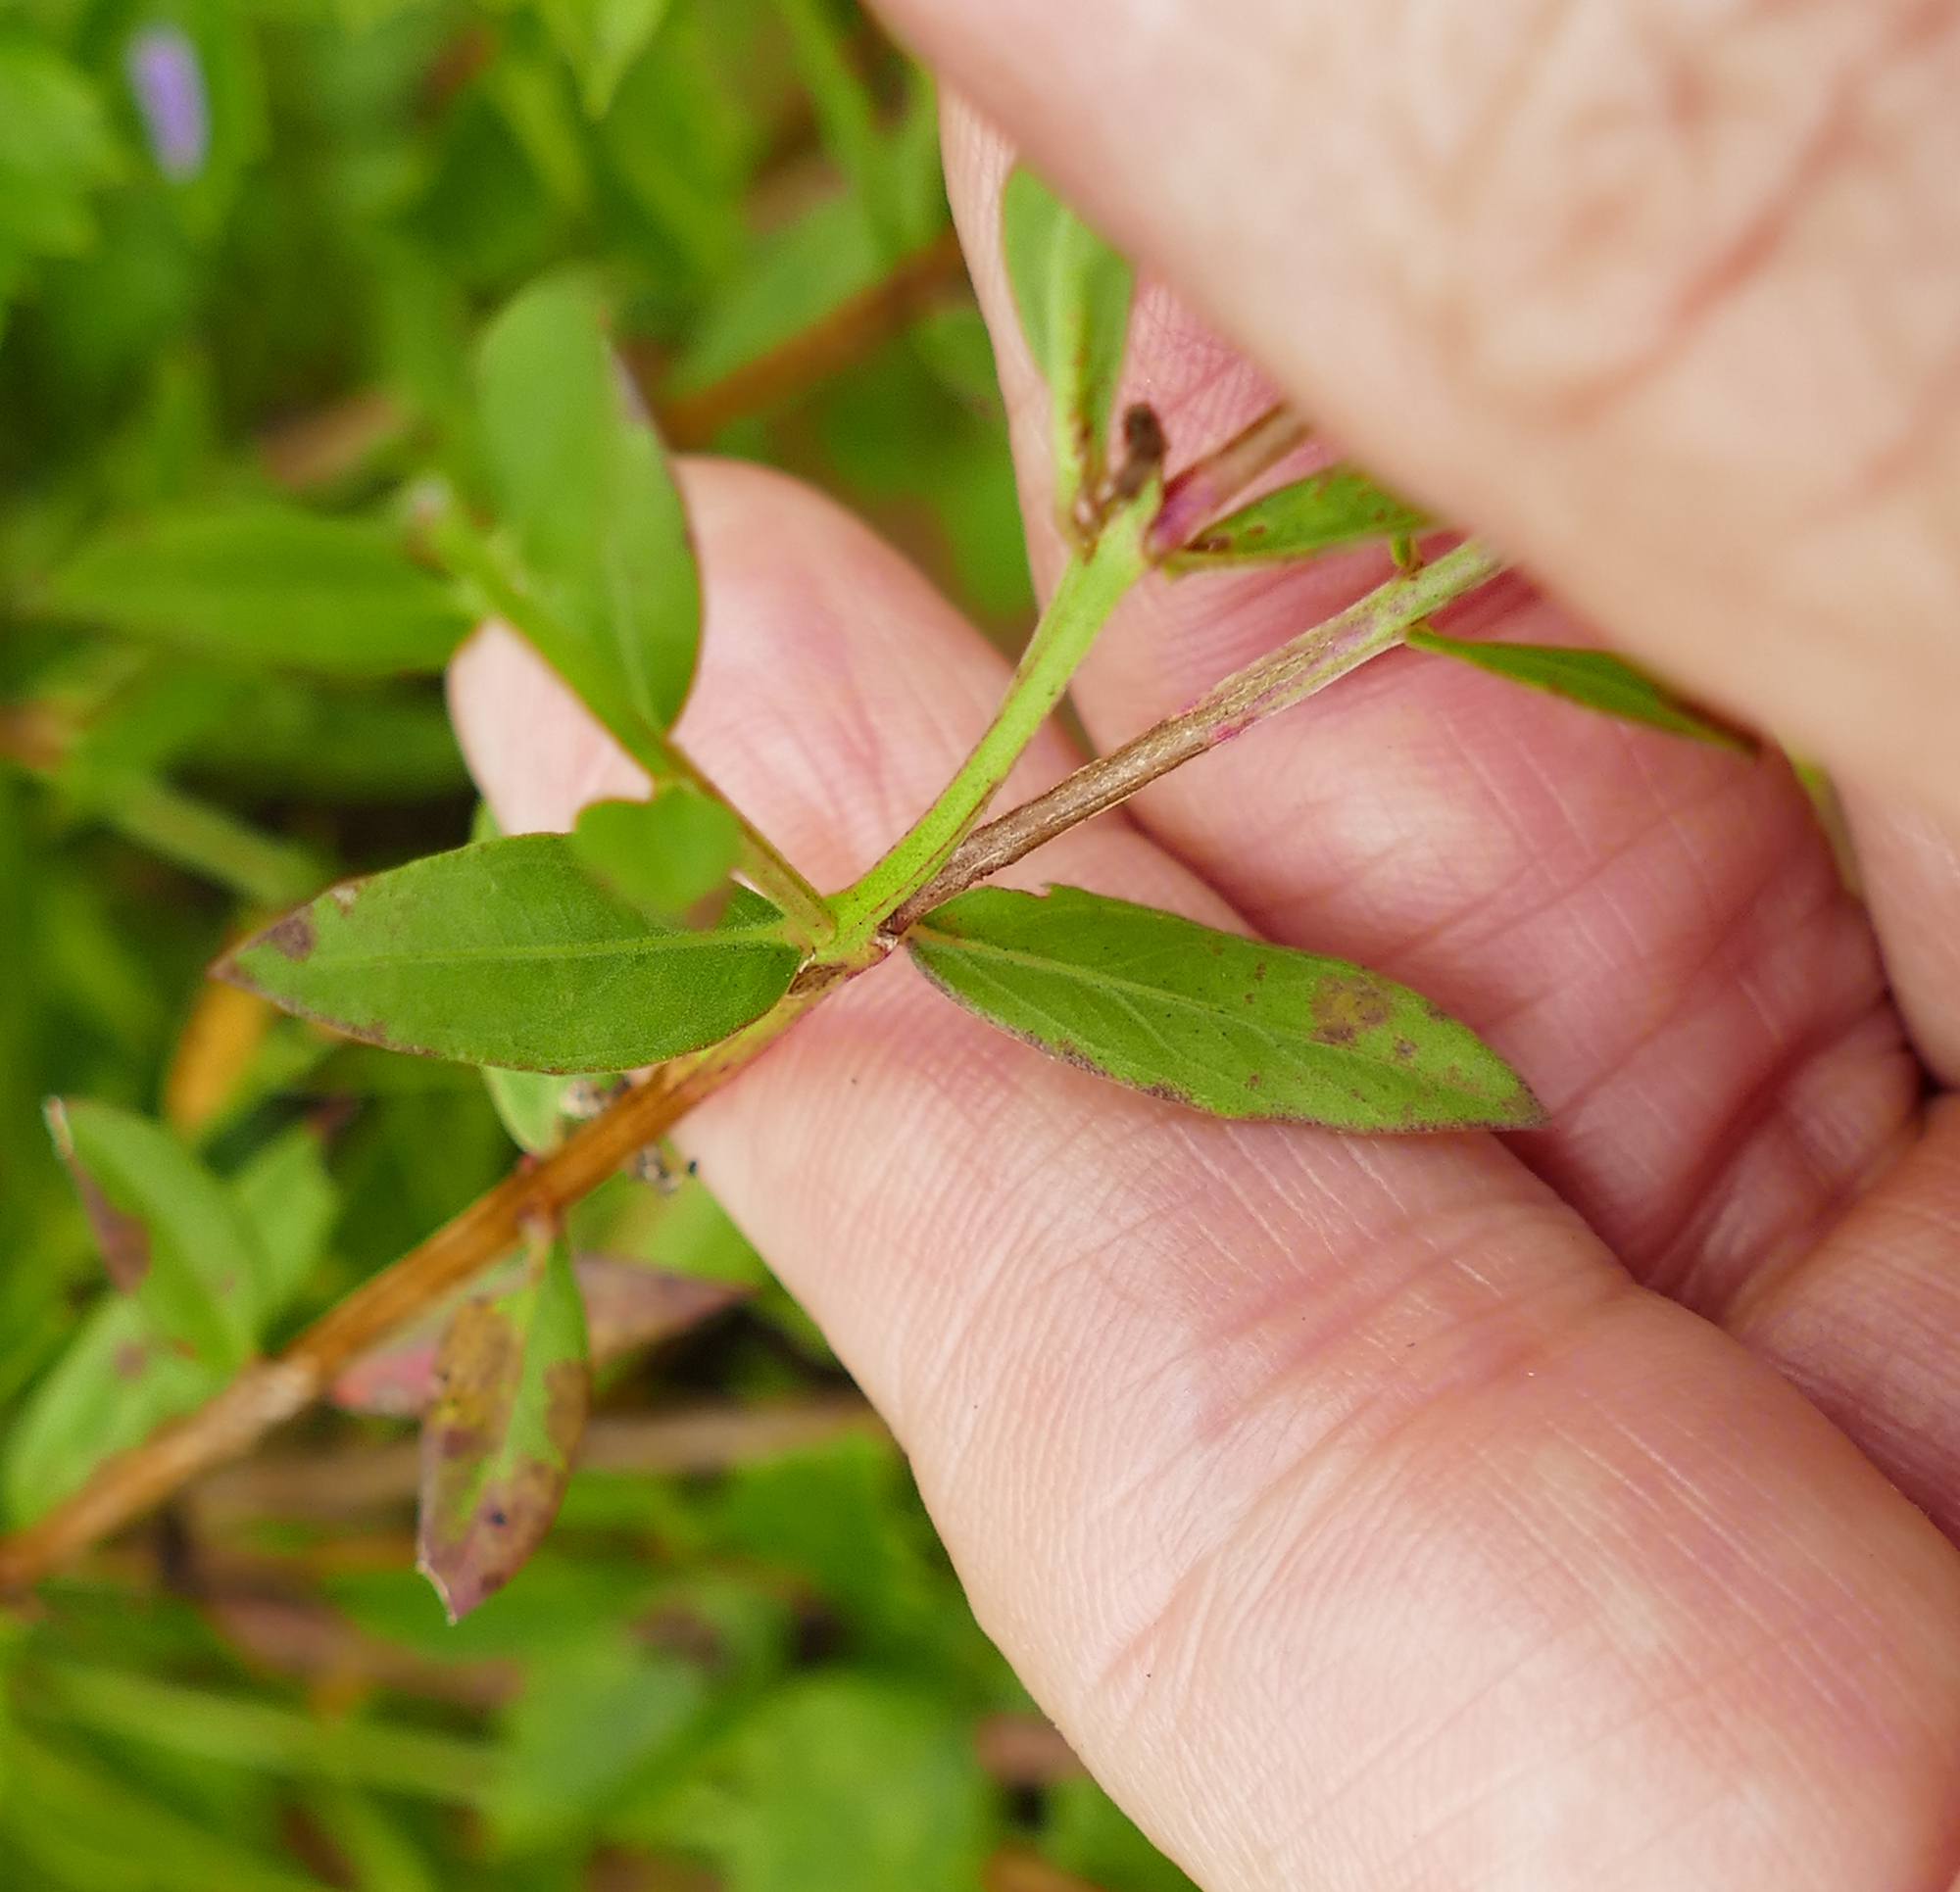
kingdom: Plantae
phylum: Tracheophyta
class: Magnoliopsida
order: Myrtales
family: Lythraceae
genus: Lythrum
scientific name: Lythrum alatum
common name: Winged loosestrife
